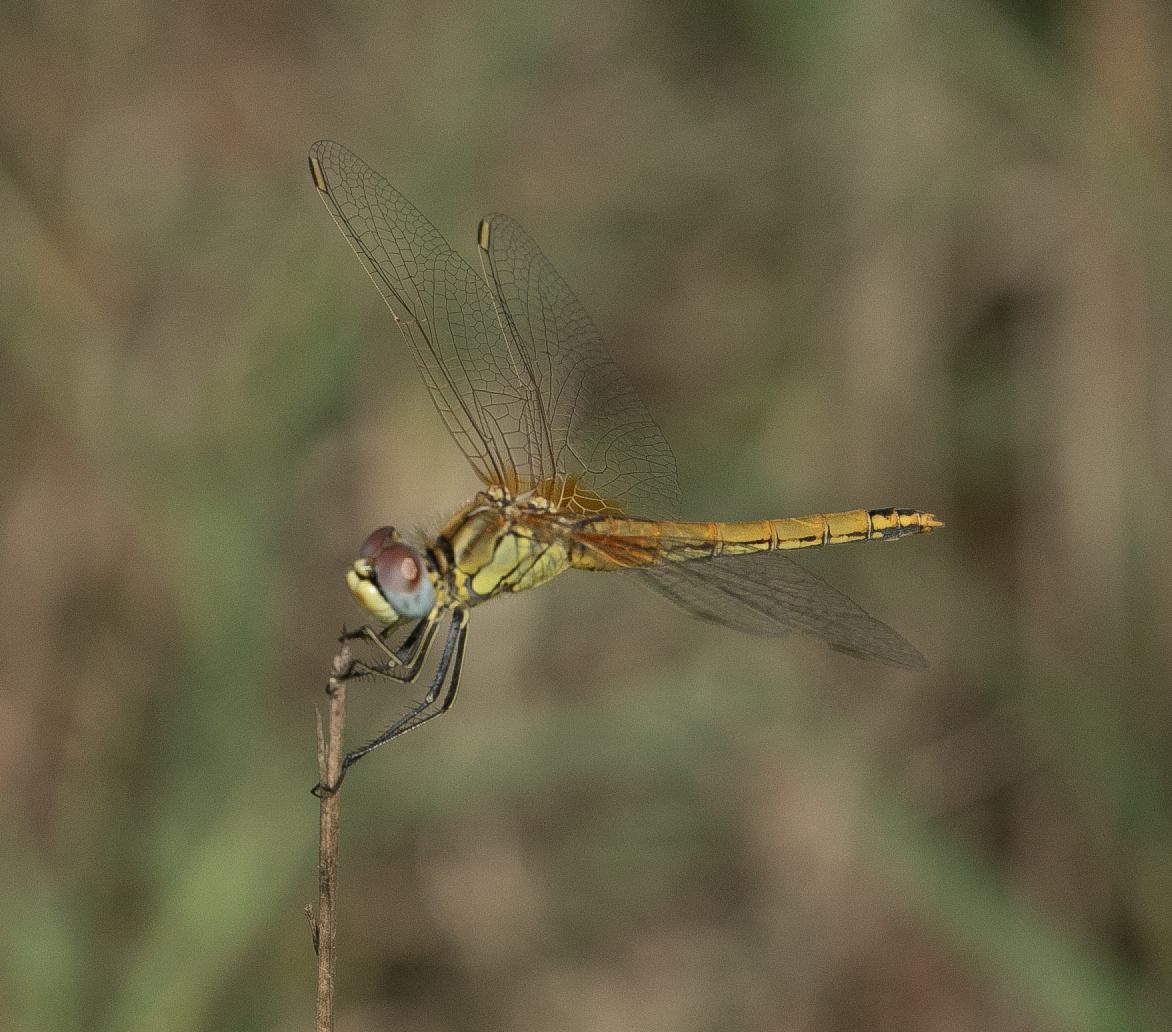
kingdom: Animalia
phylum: Arthropoda
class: Insecta
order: Odonata
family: Libellulidae
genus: Sympetrum
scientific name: Sympetrum fonscolombii
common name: Red-veined darter
